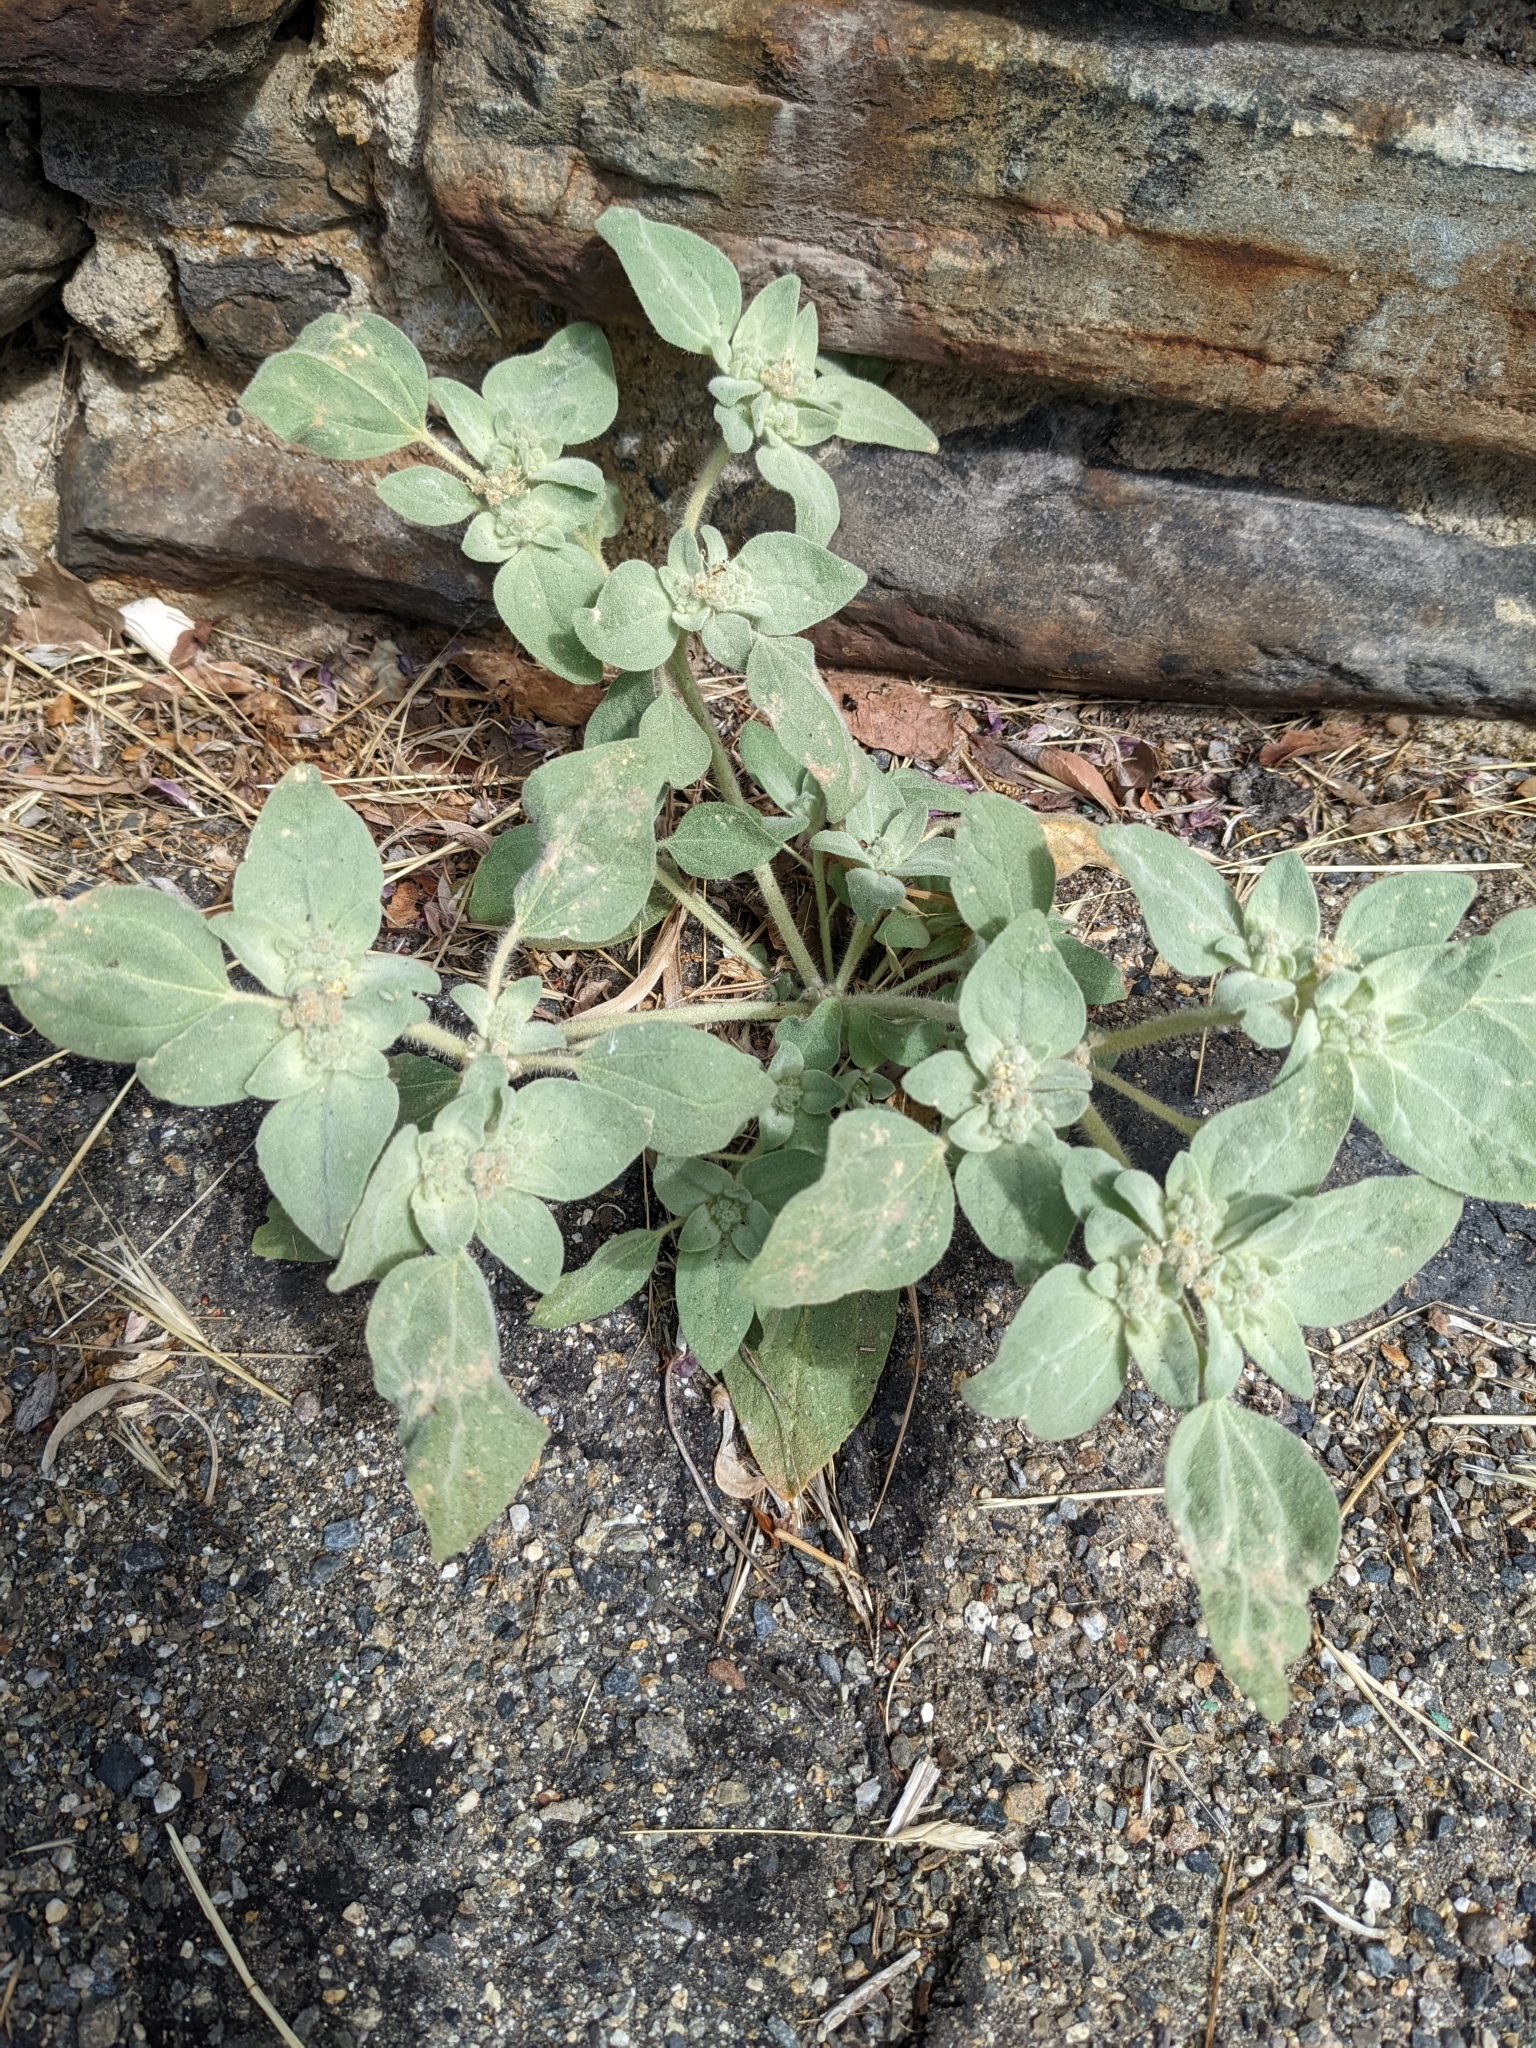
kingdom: Plantae
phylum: Tracheophyta
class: Magnoliopsida
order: Malpighiales
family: Euphorbiaceae
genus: Croton
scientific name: Croton setiger
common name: Dove weed
